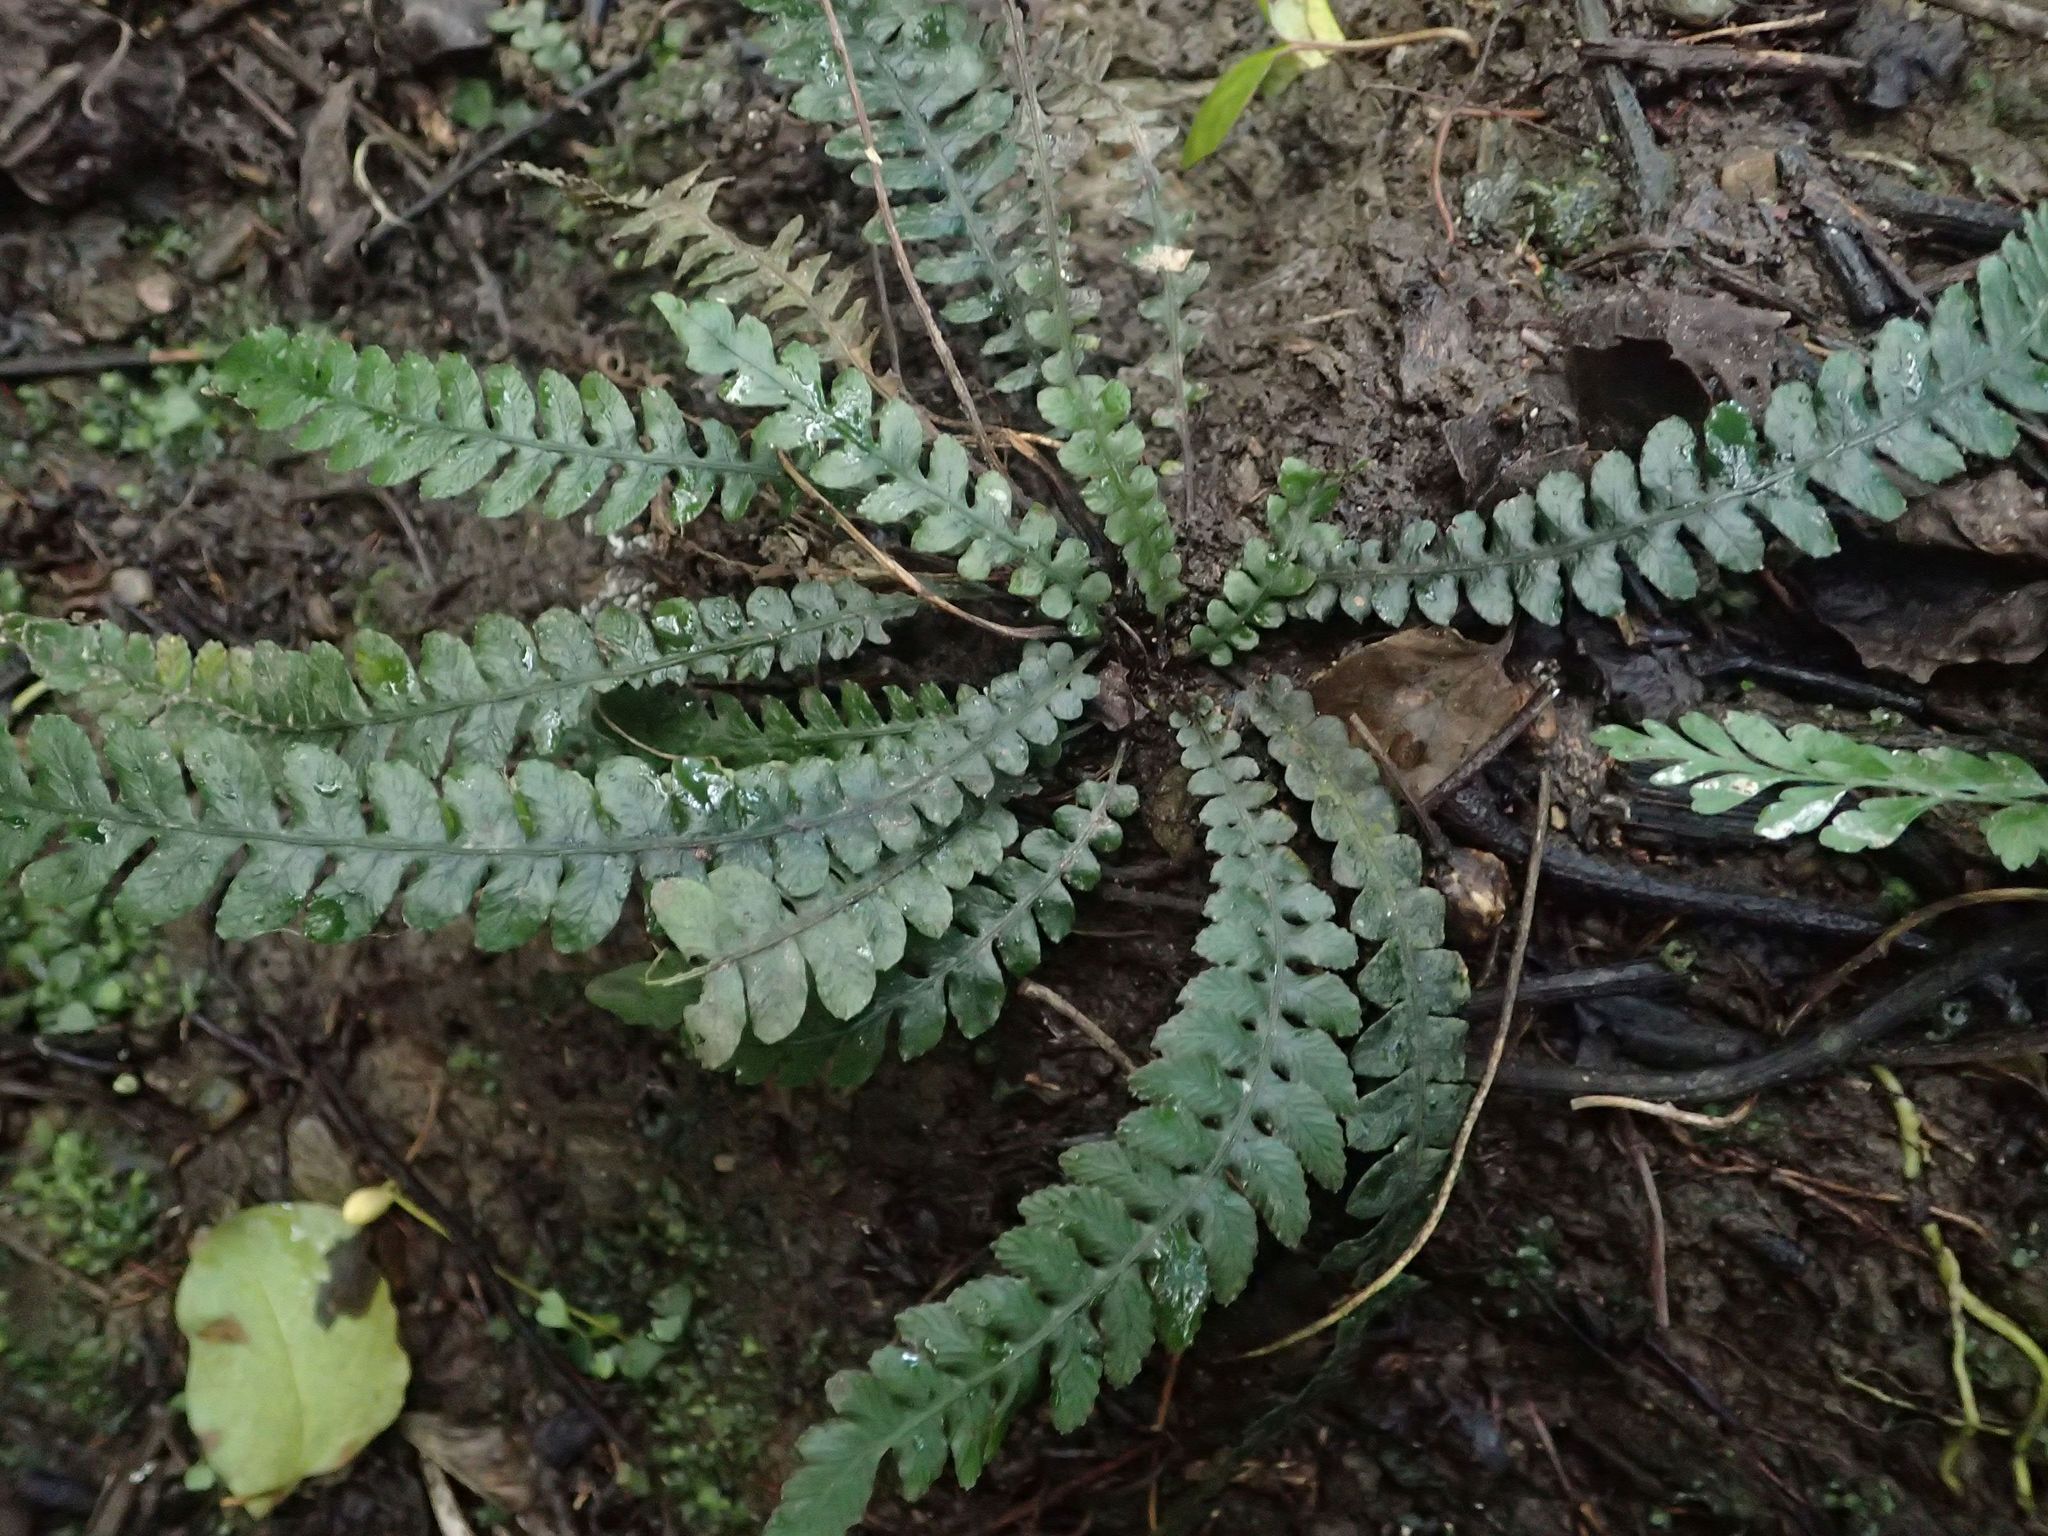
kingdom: Plantae
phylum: Tracheophyta
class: Polypodiopsida
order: Polypodiales
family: Blechnaceae
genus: Austroblechnum
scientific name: Austroblechnum membranaceum
